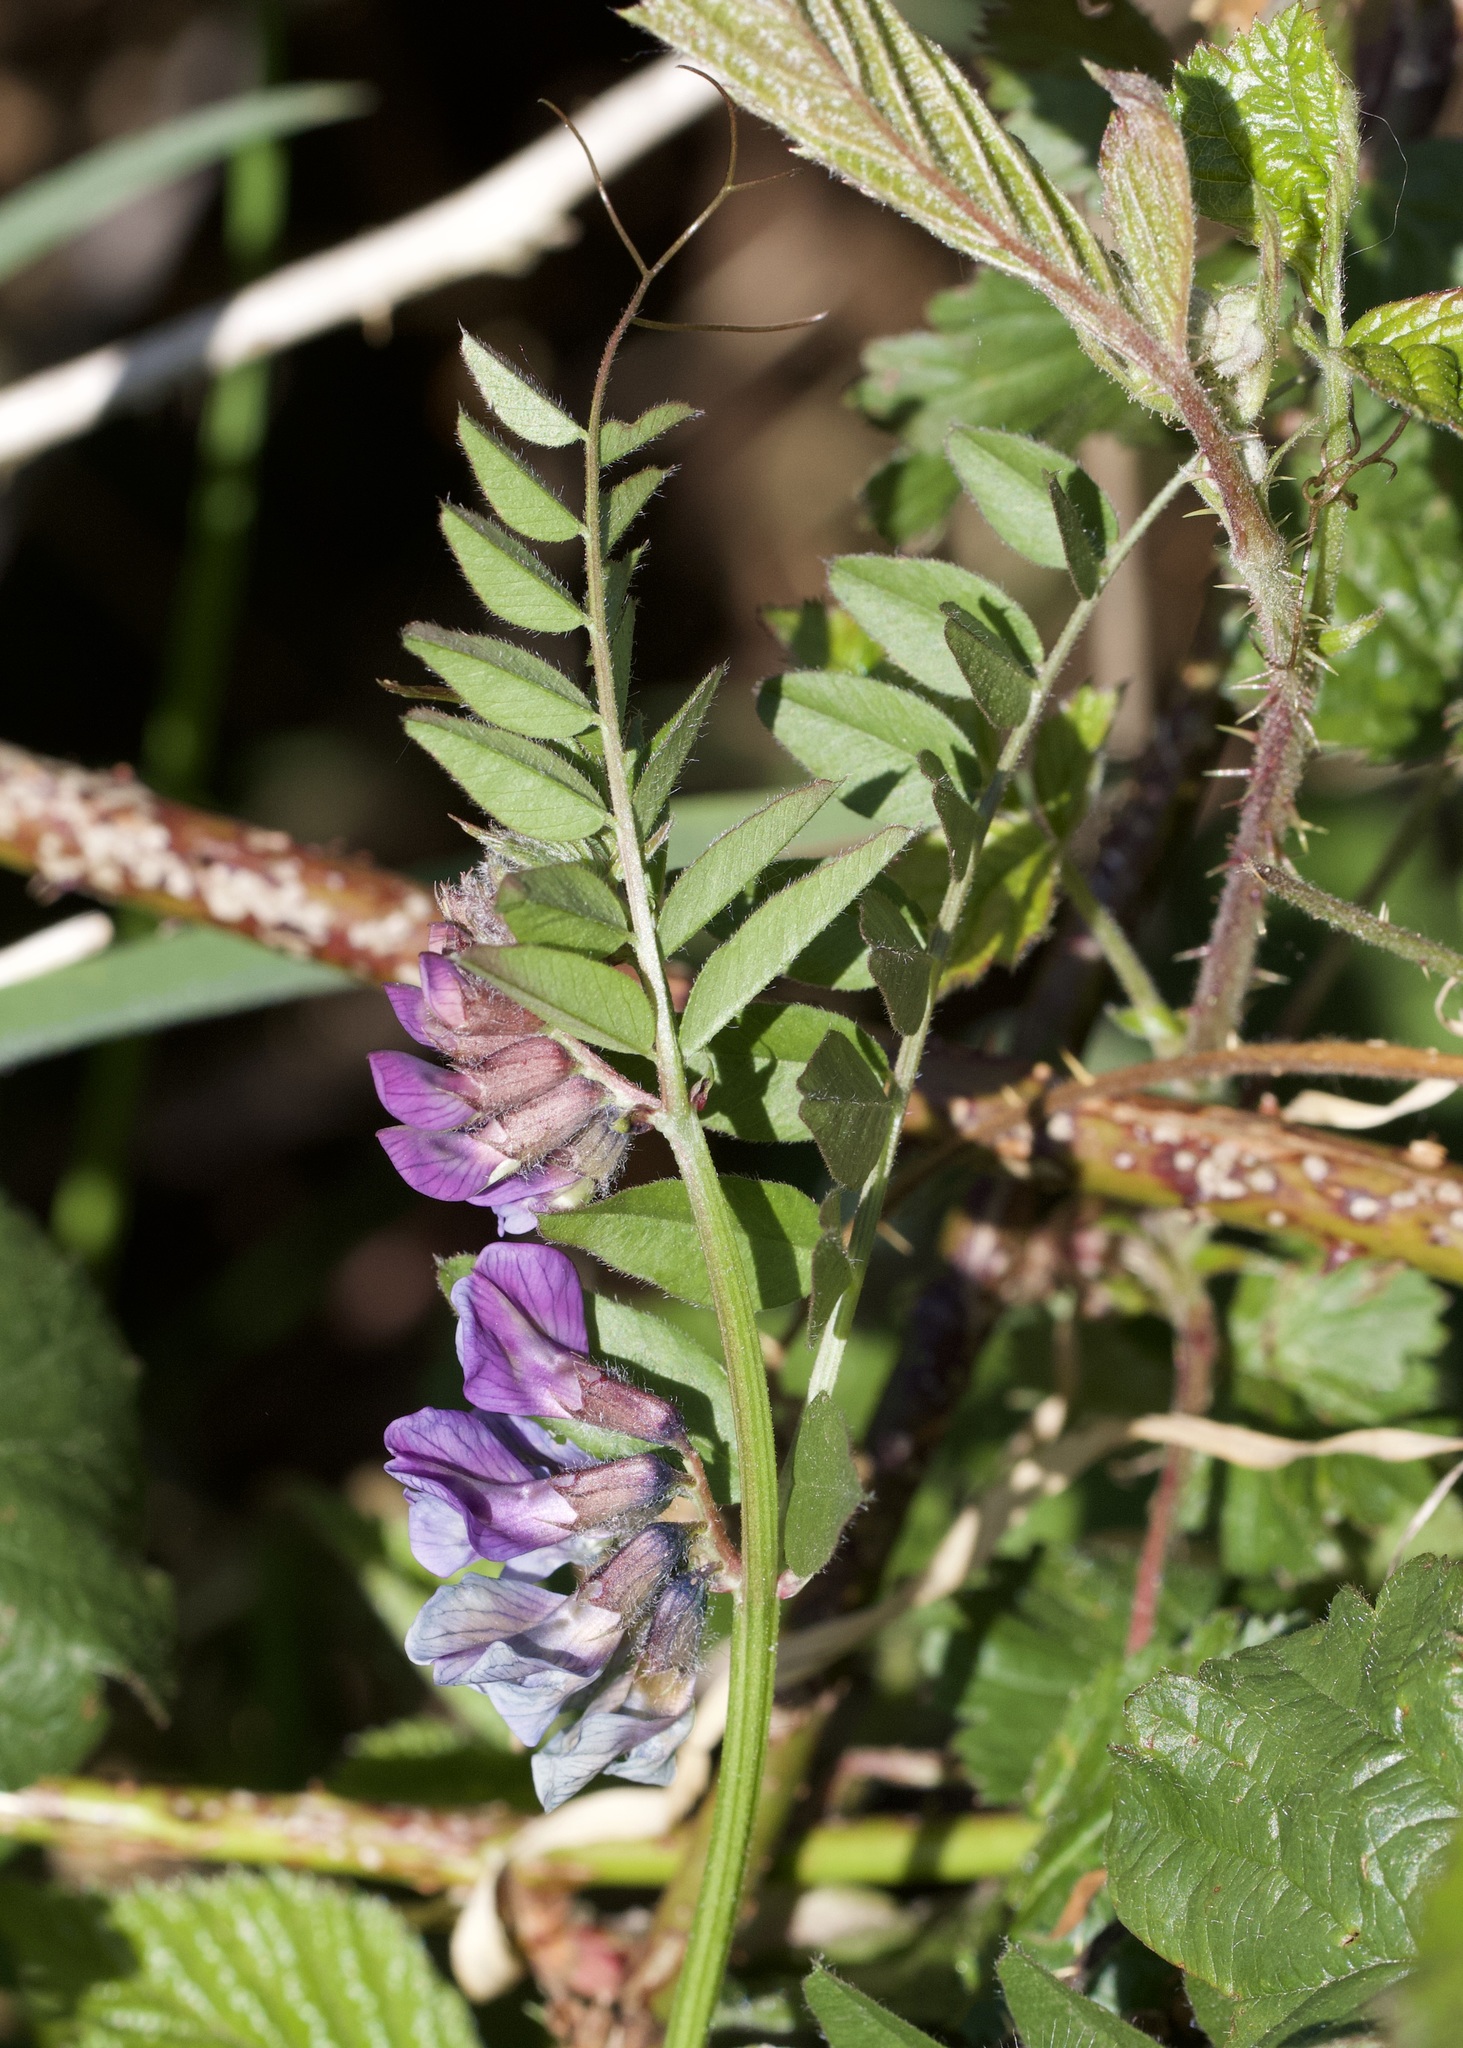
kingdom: Plantae
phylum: Tracheophyta
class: Magnoliopsida
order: Fabales
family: Fabaceae
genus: Vicia
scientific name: Vicia sepium
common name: Bush vetch
